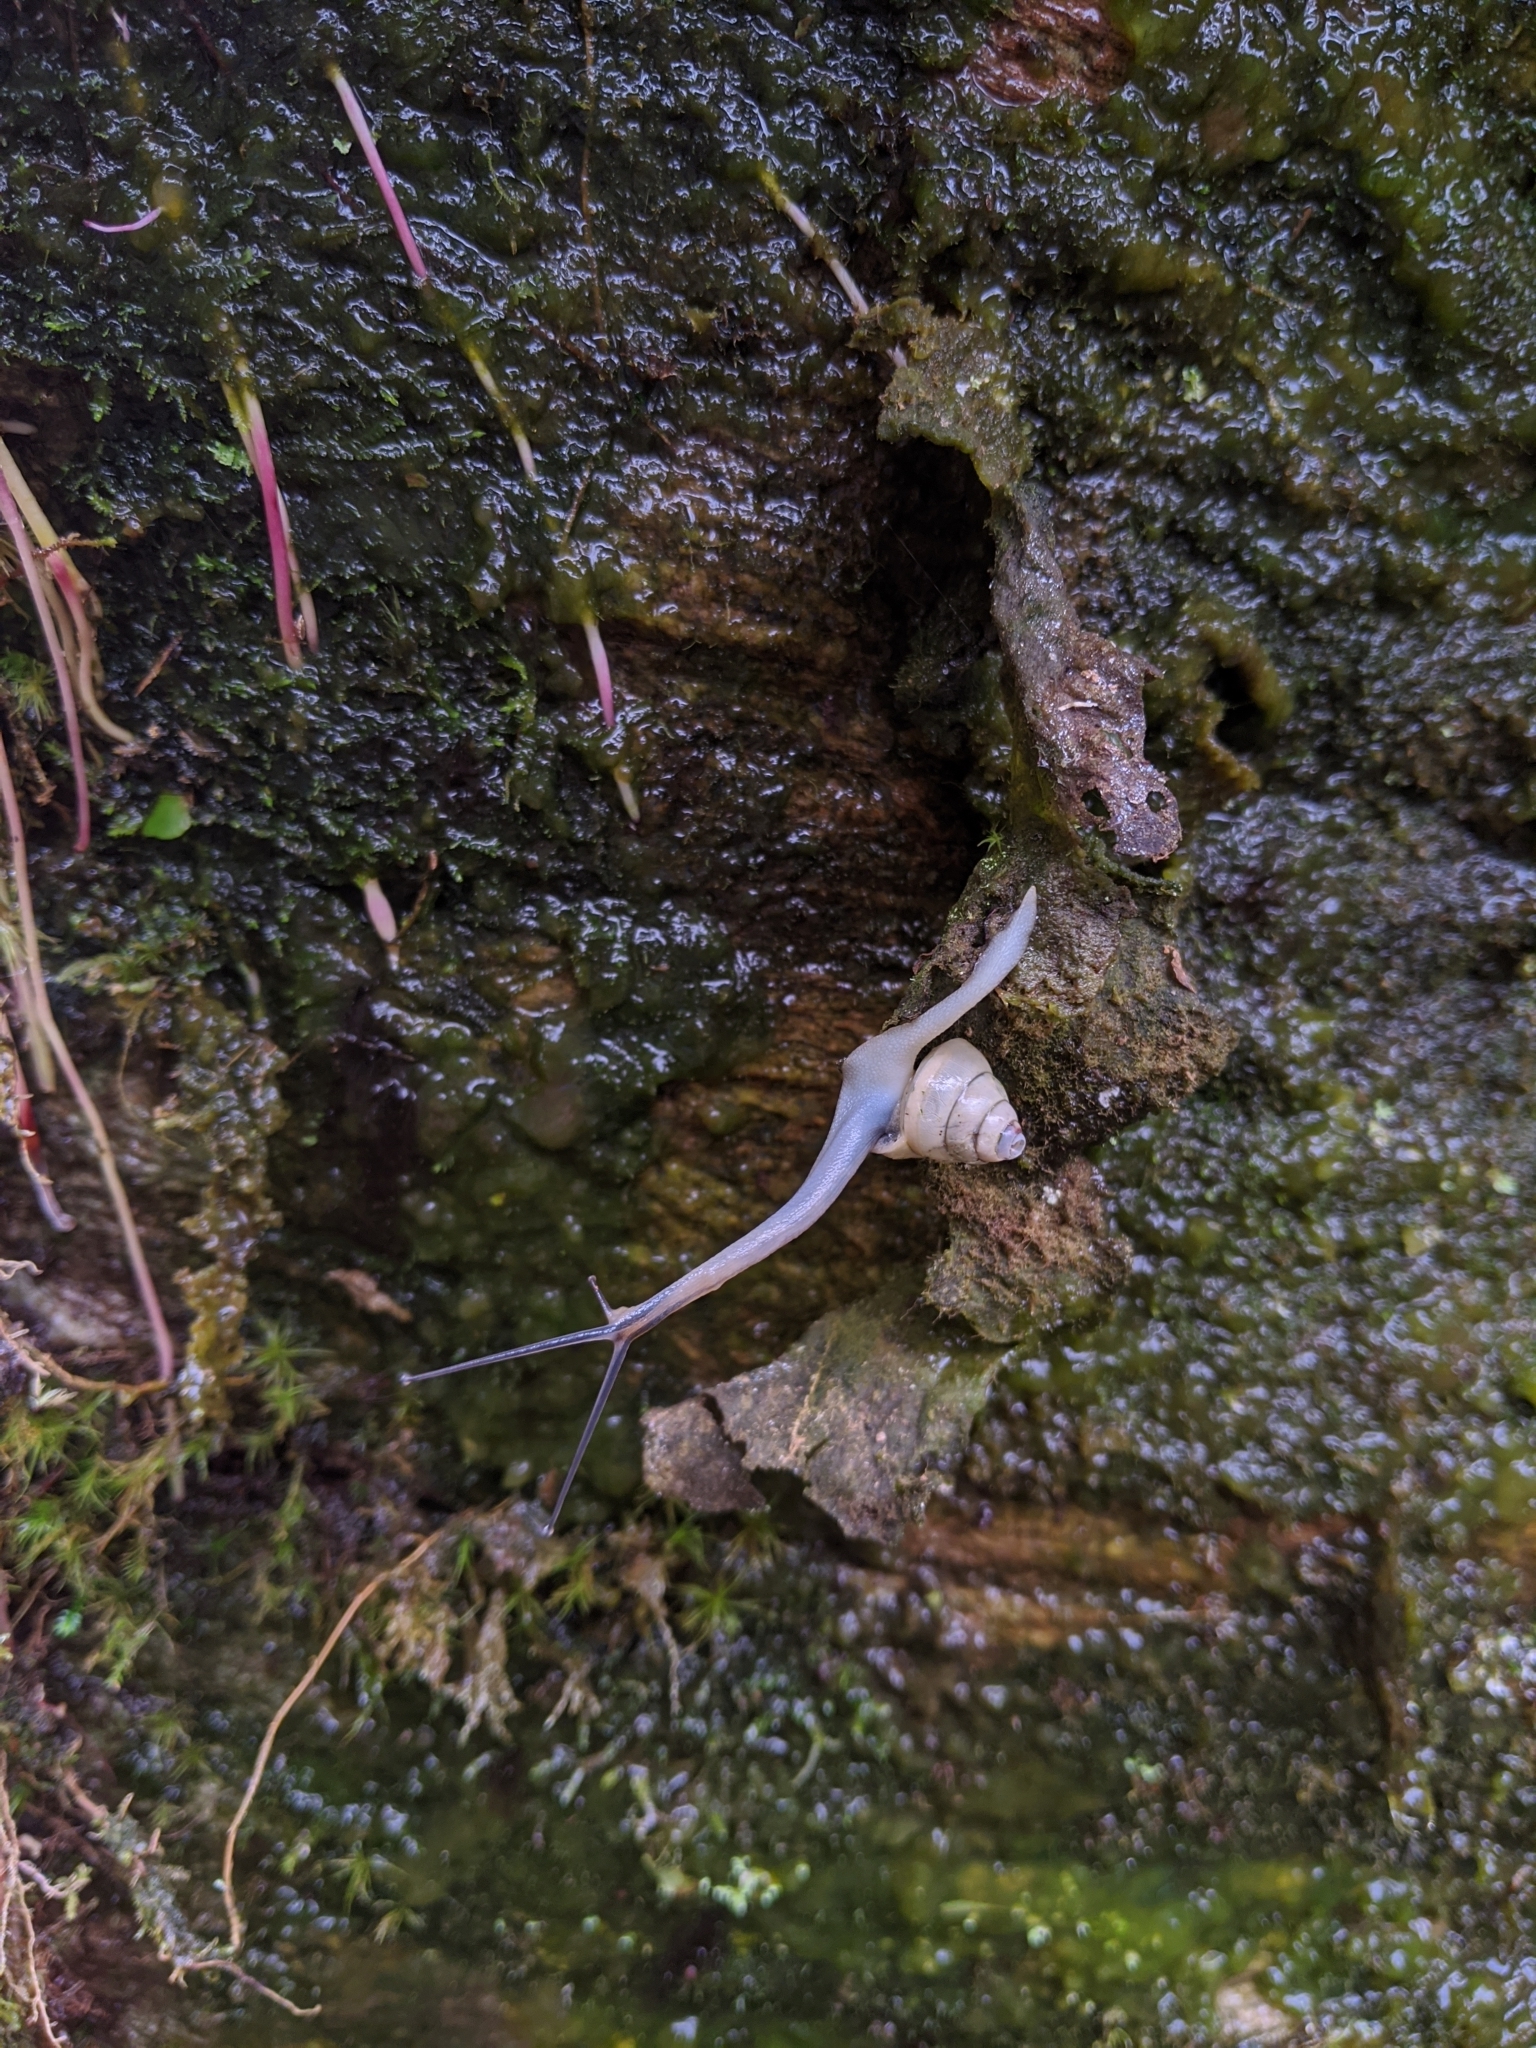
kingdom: Animalia
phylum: Mollusca
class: Gastropoda
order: Stylommatophora
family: Camaenidae
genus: Satsuma
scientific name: Satsuma luteolella
